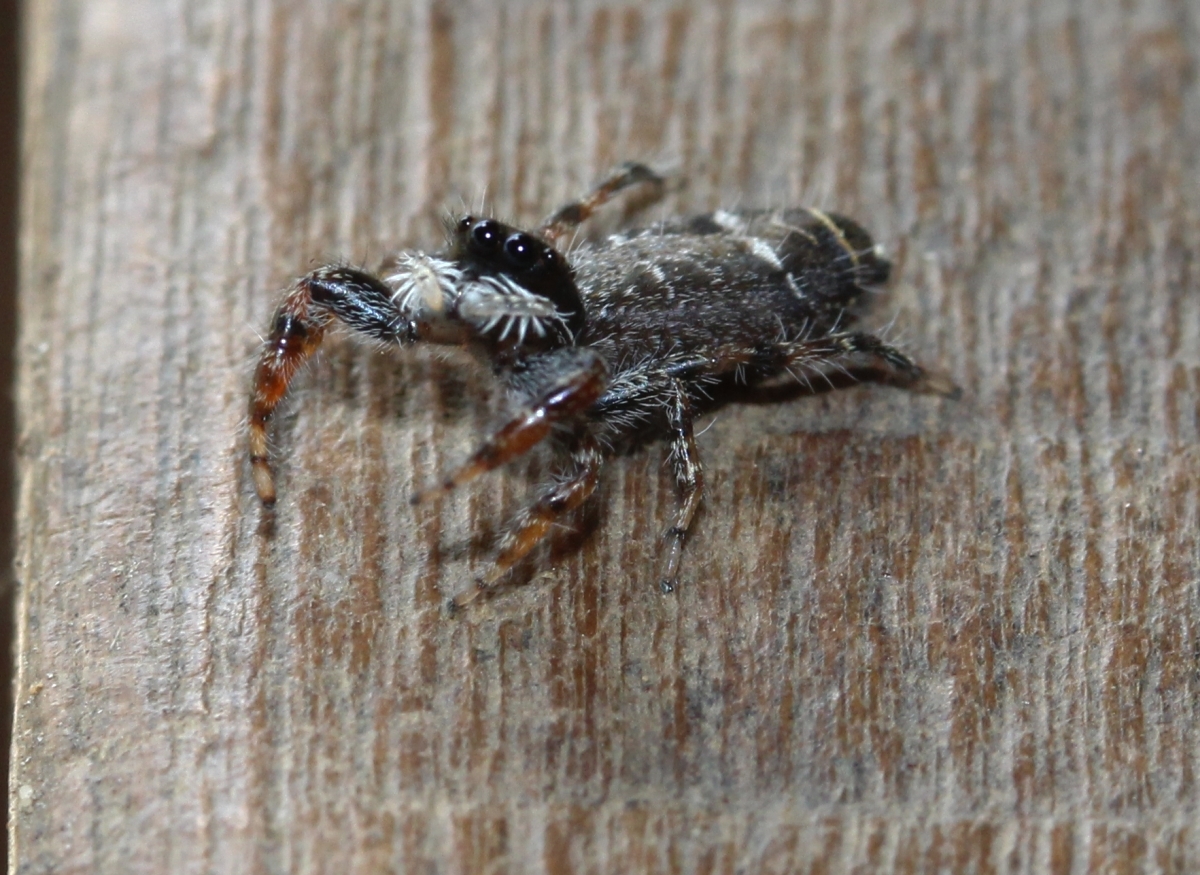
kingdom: Animalia
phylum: Arthropoda
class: Arachnida
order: Araneae
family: Salticidae
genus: Breda
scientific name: Breda
